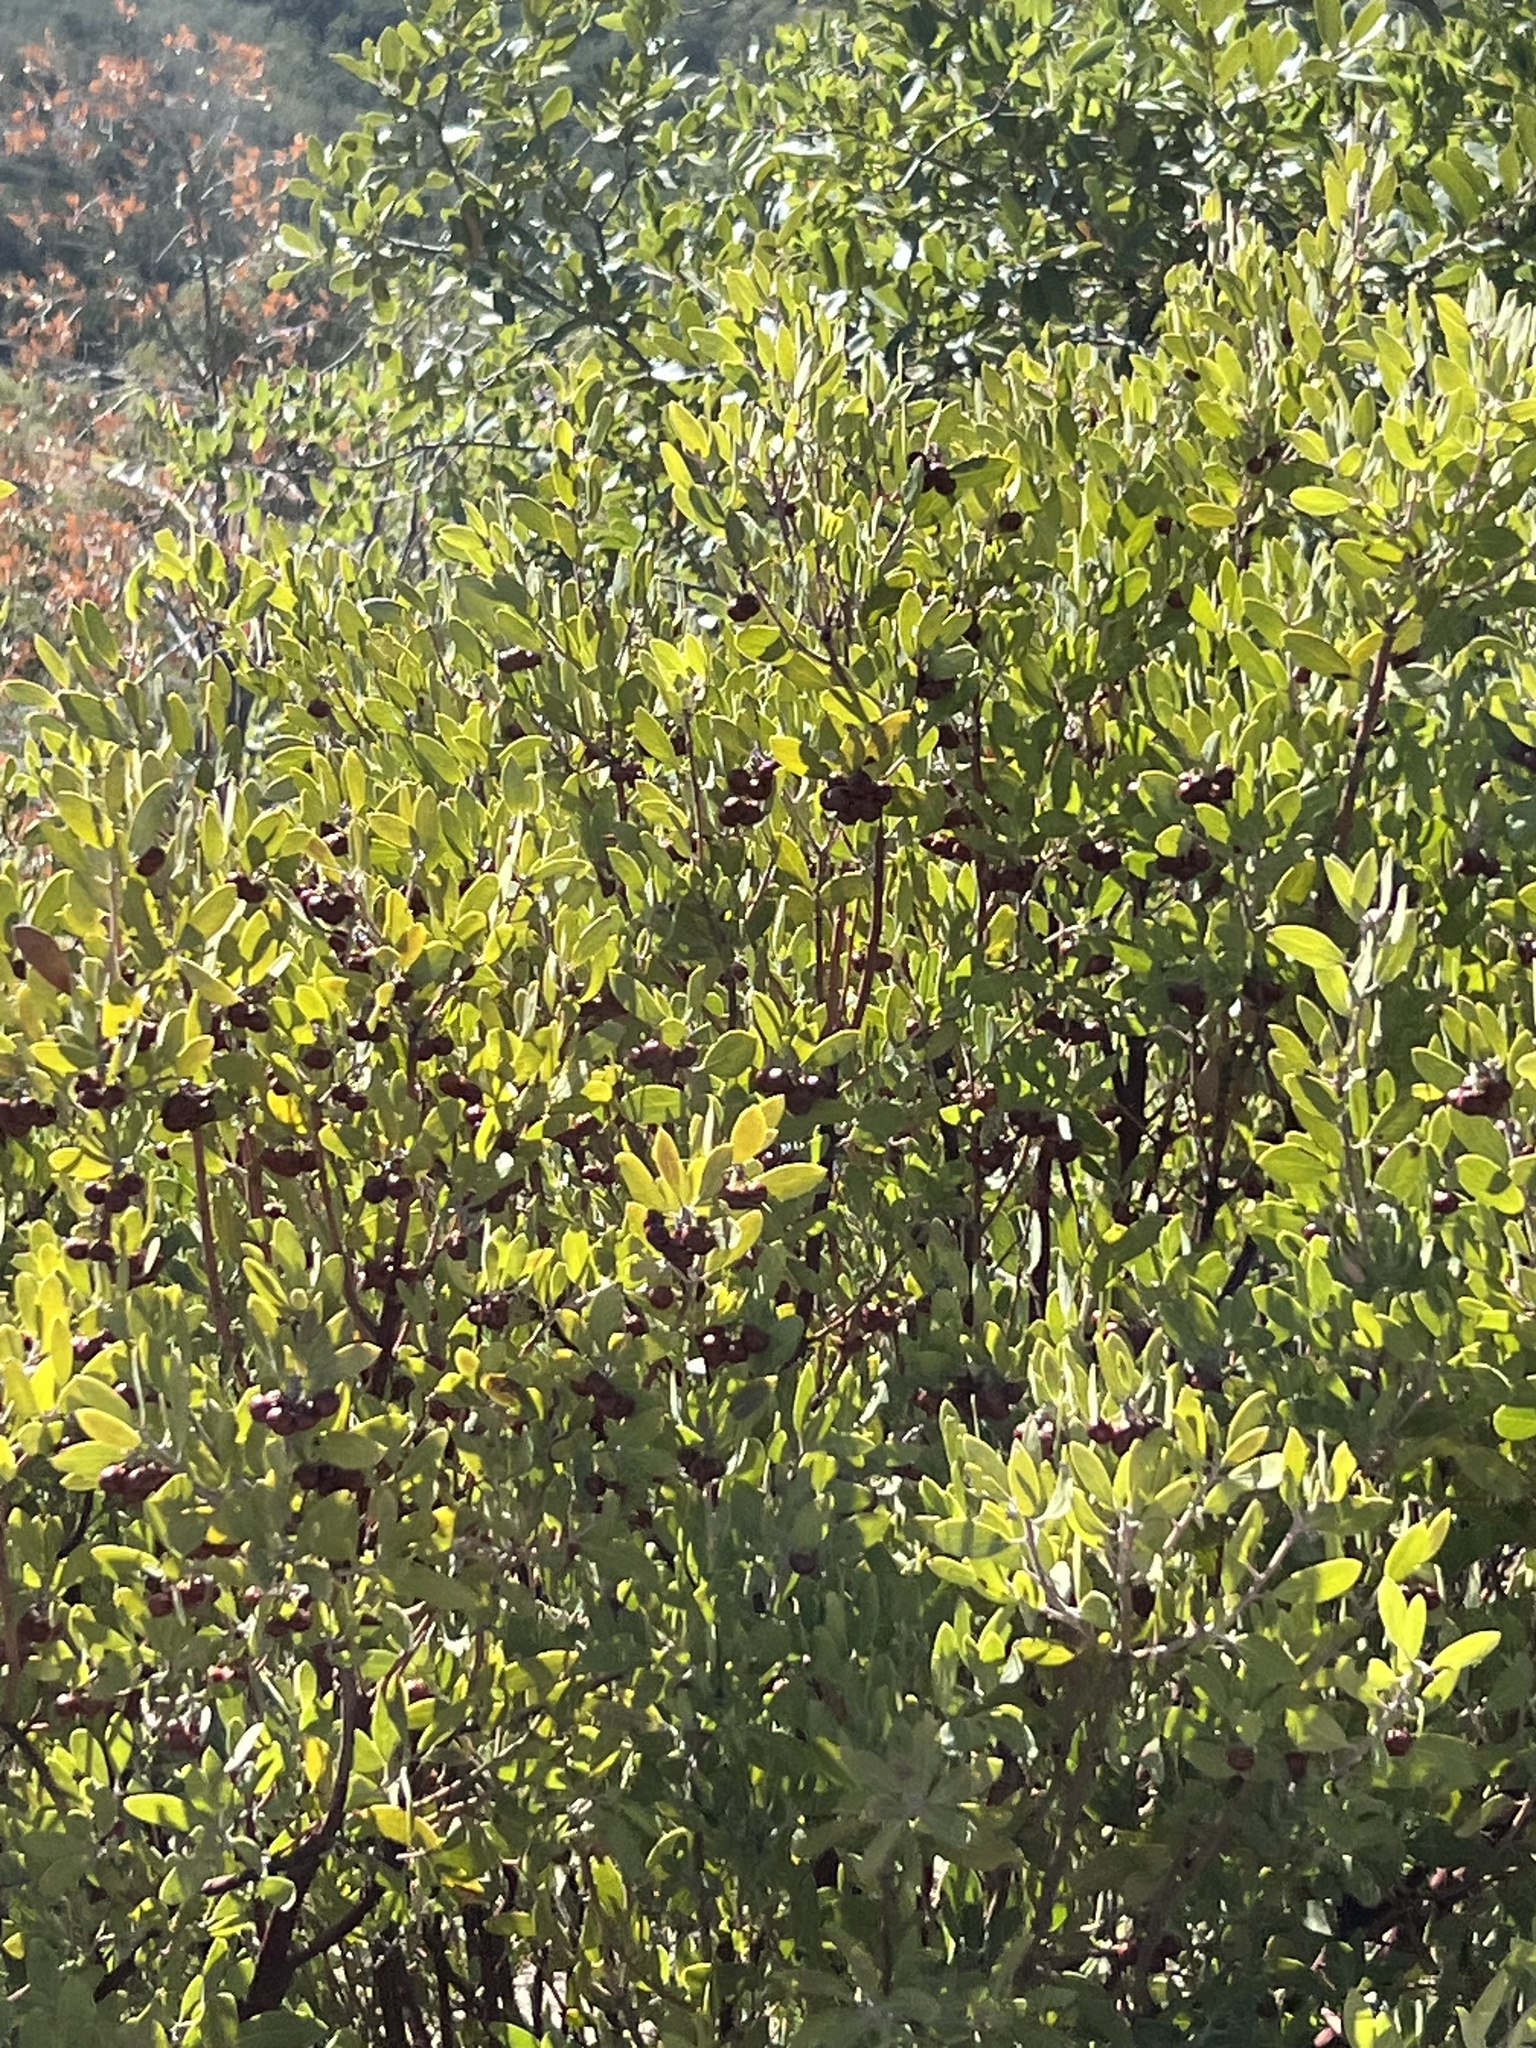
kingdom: Plantae
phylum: Tracheophyta
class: Magnoliopsida
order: Ericales
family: Ericaceae
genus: Arctostaphylos
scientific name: Arctostaphylos pungens
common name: Mexican manzanita
